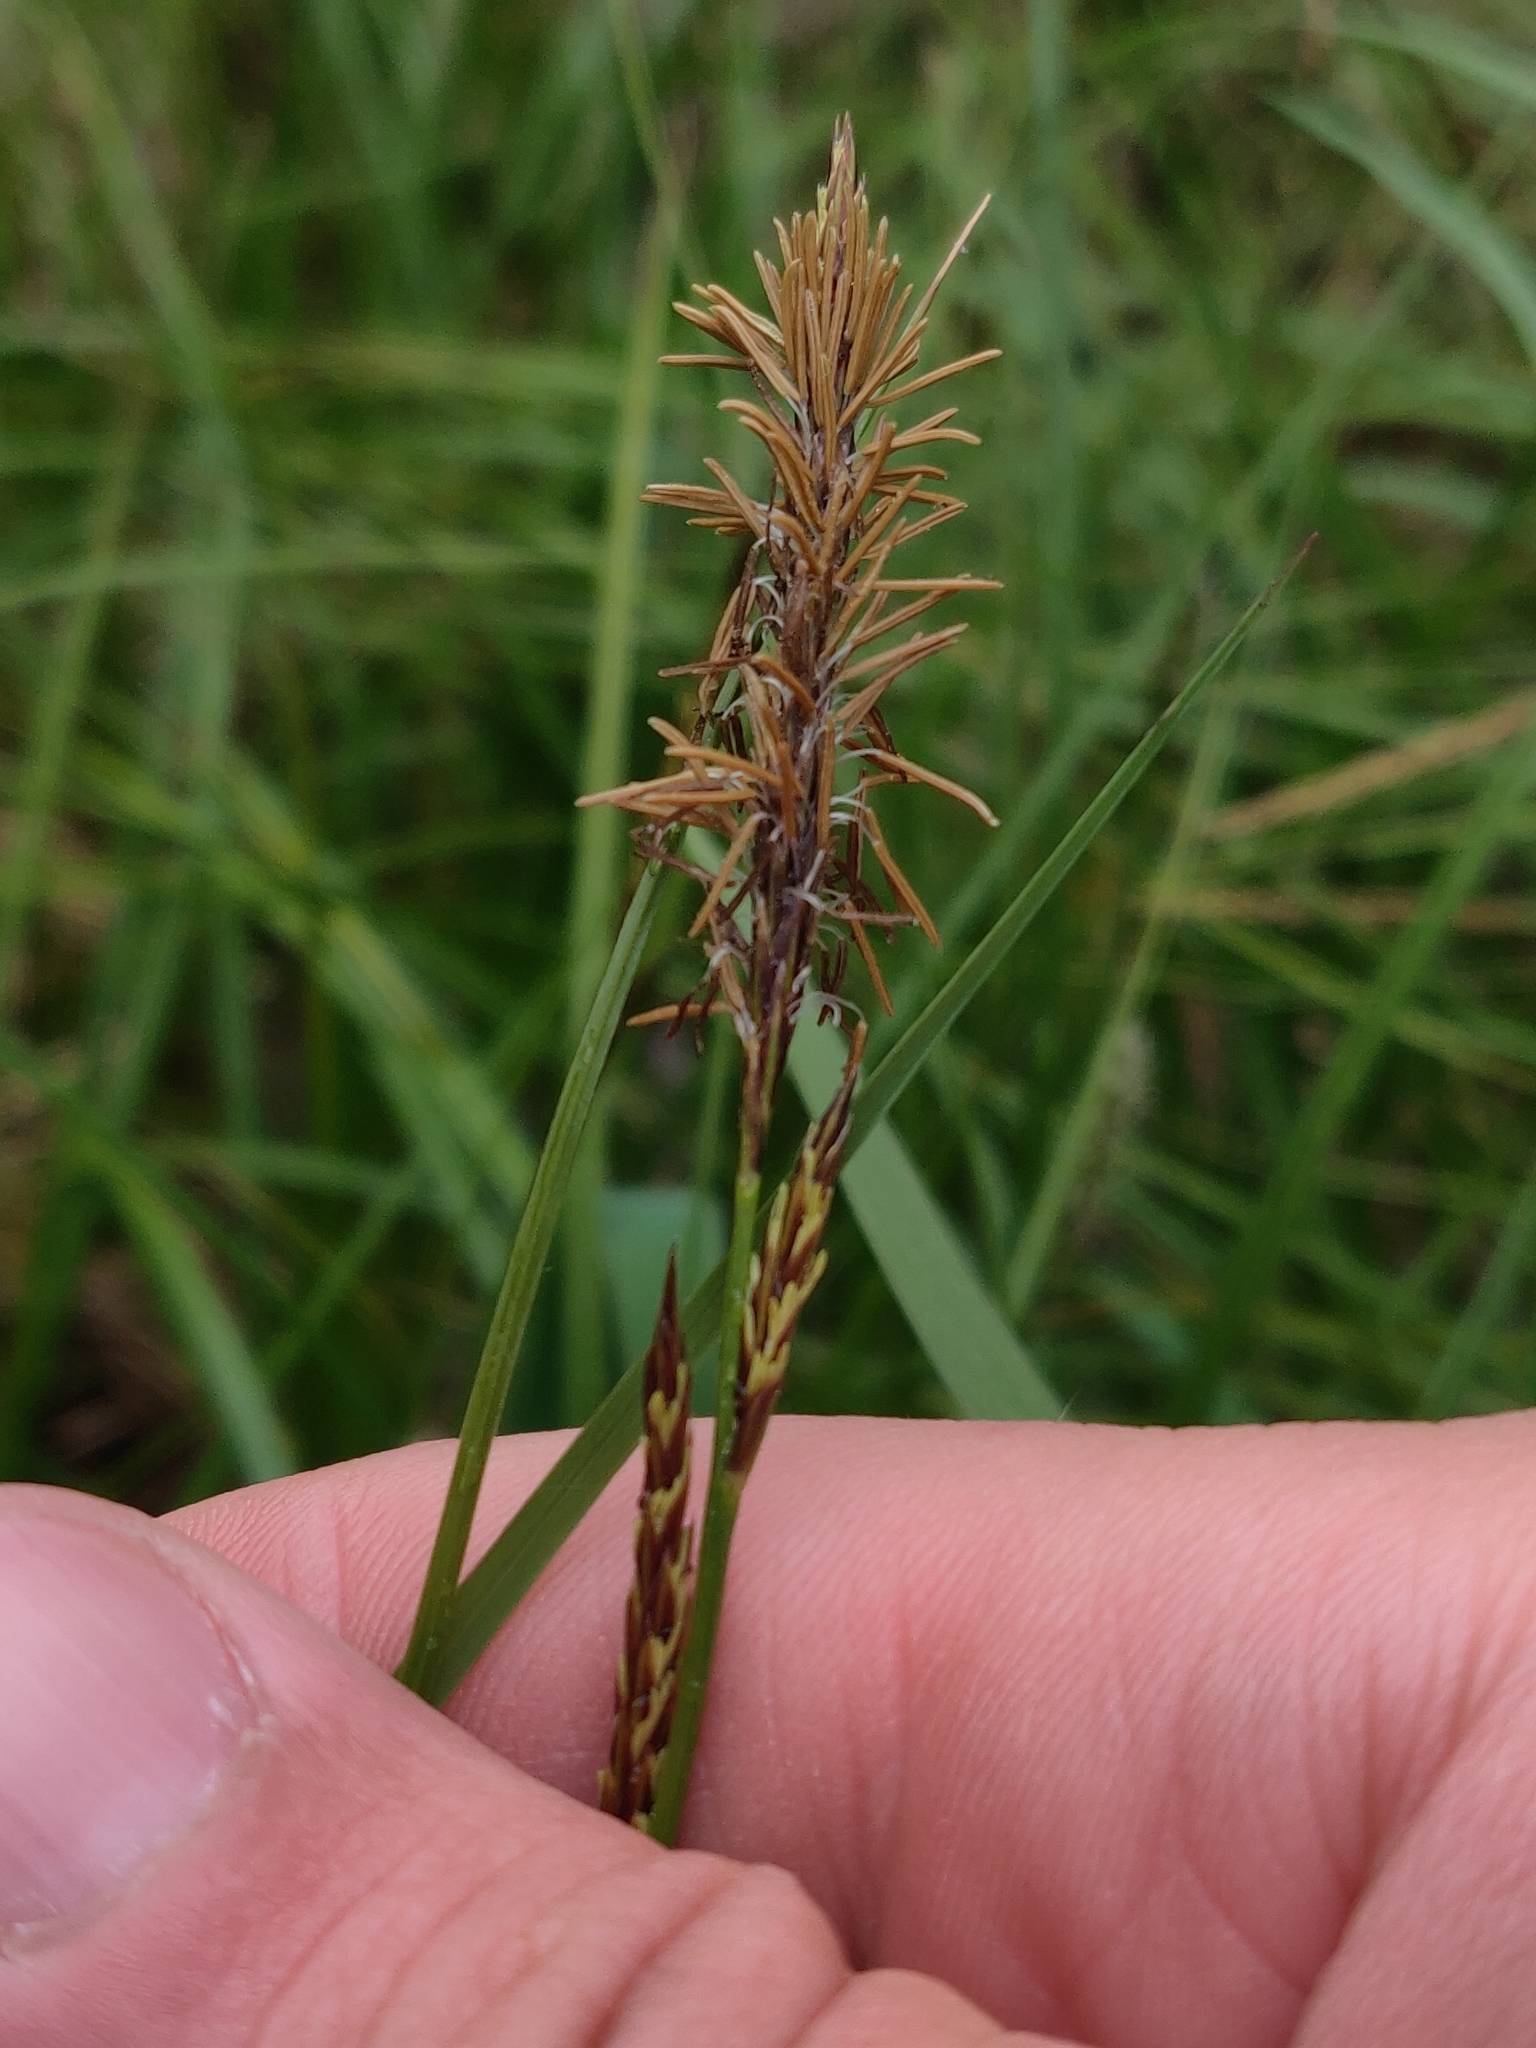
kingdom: Plantae
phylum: Tracheophyta
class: Liliopsida
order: Poales
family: Cyperaceae
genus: Carex
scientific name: Carex stricta
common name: Hummock sedge
